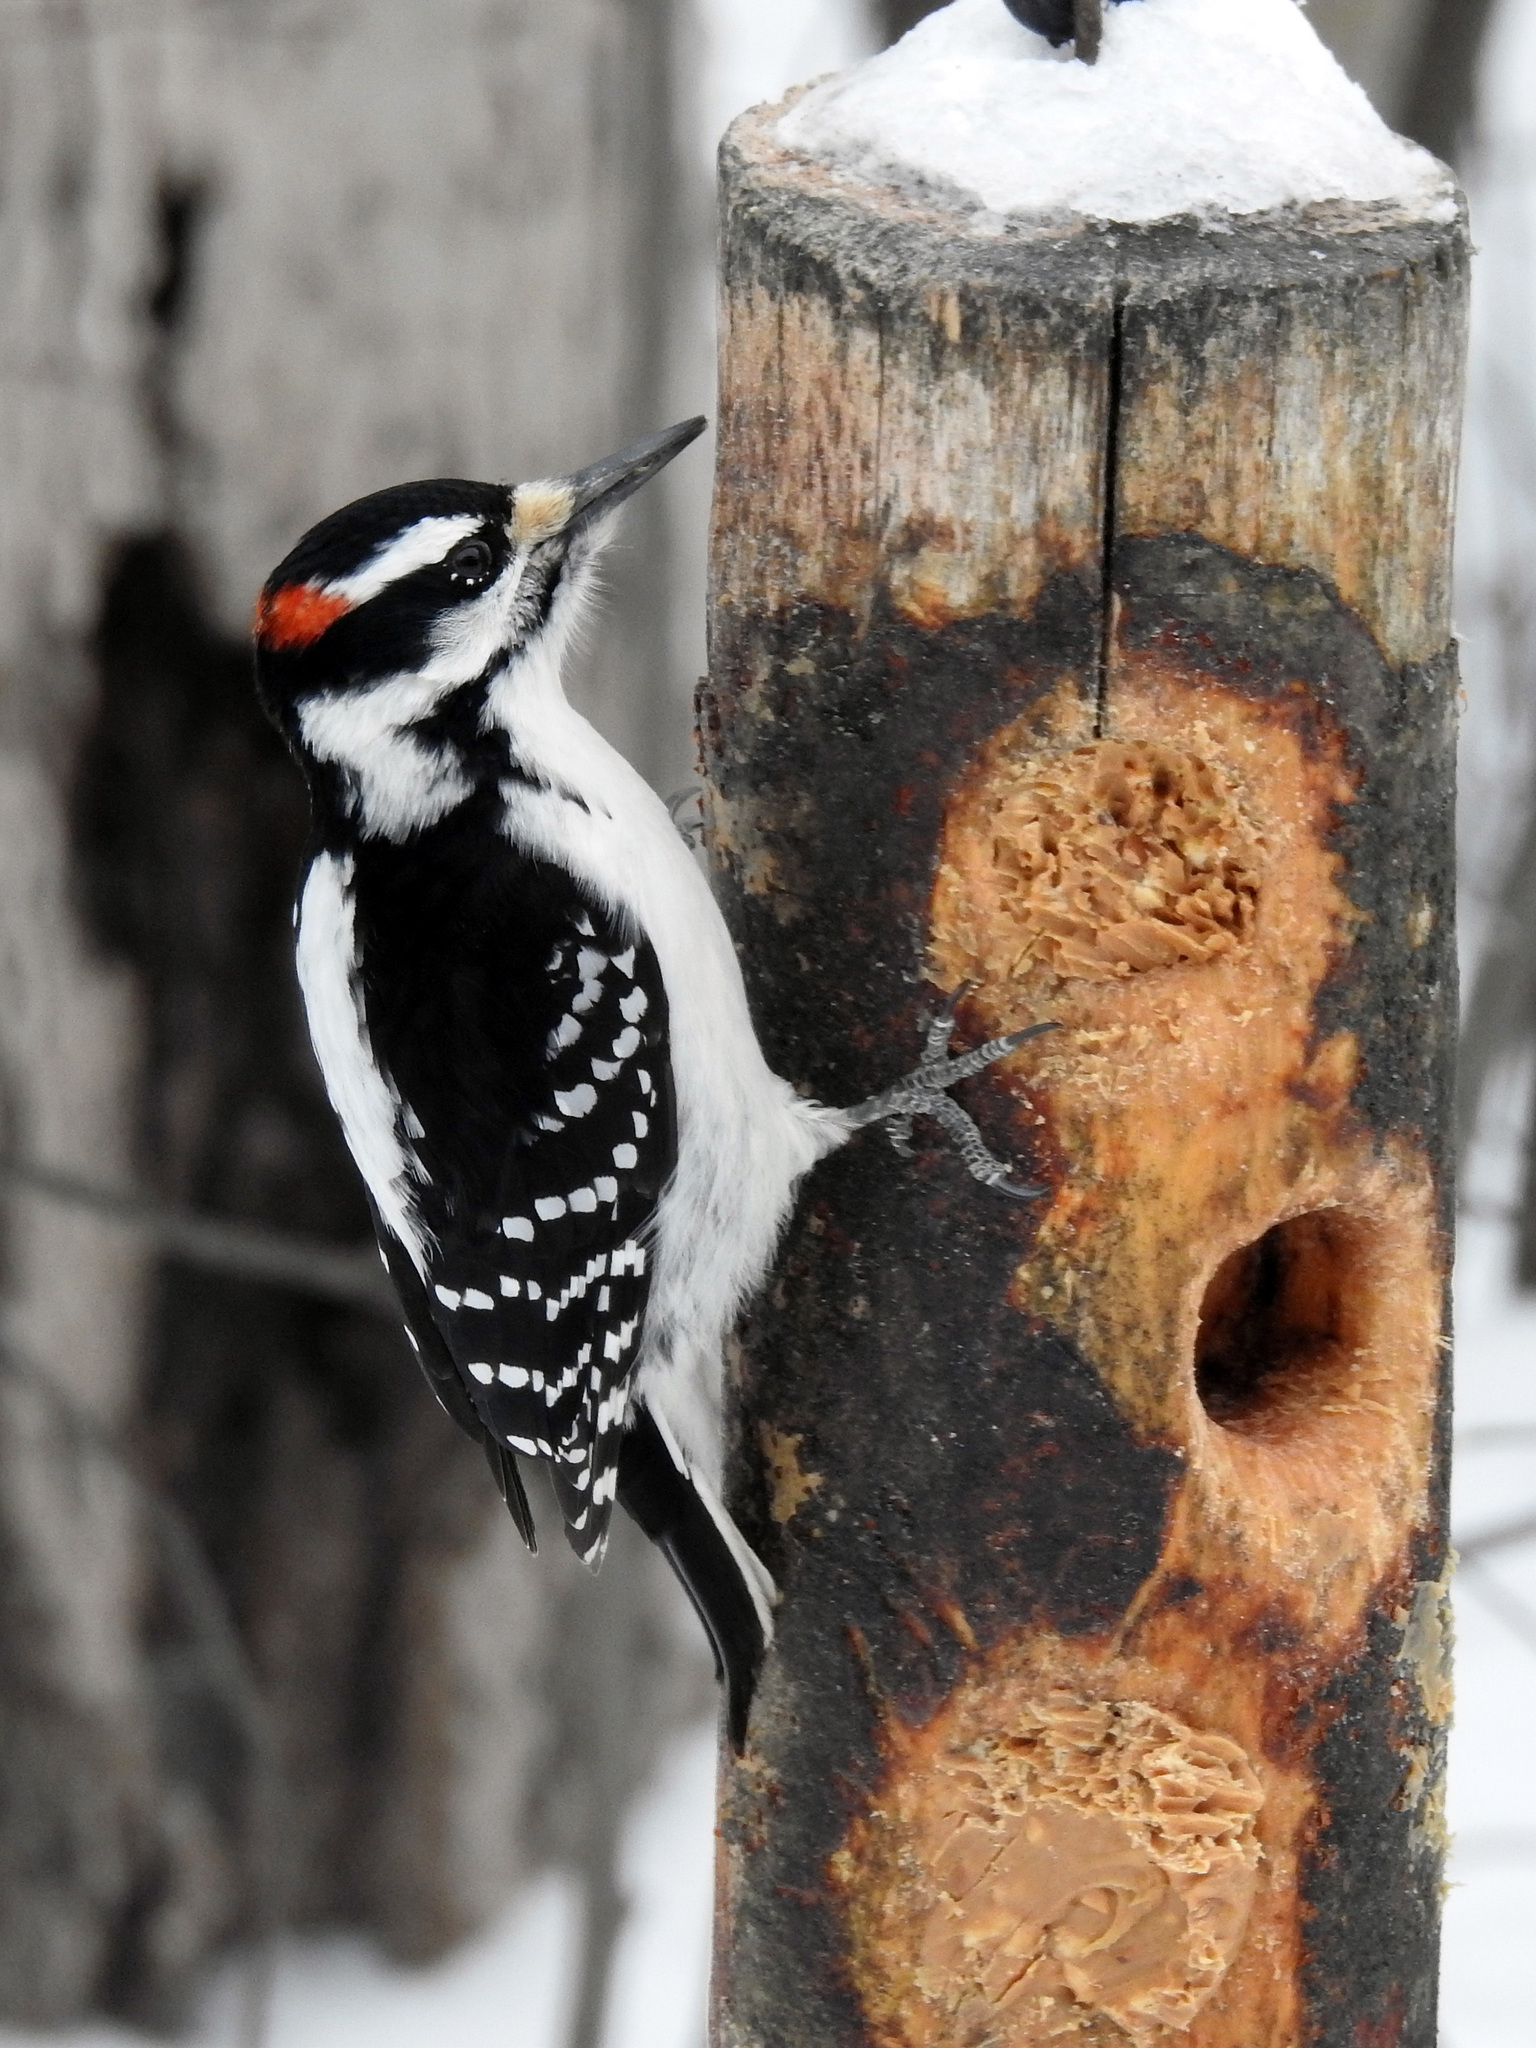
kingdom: Animalia
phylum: Chordata
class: Aves
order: Piciformes
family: Picidae
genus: Leuconotopicus
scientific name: Leuconotopicus villosus
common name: Hairy woodpecker
